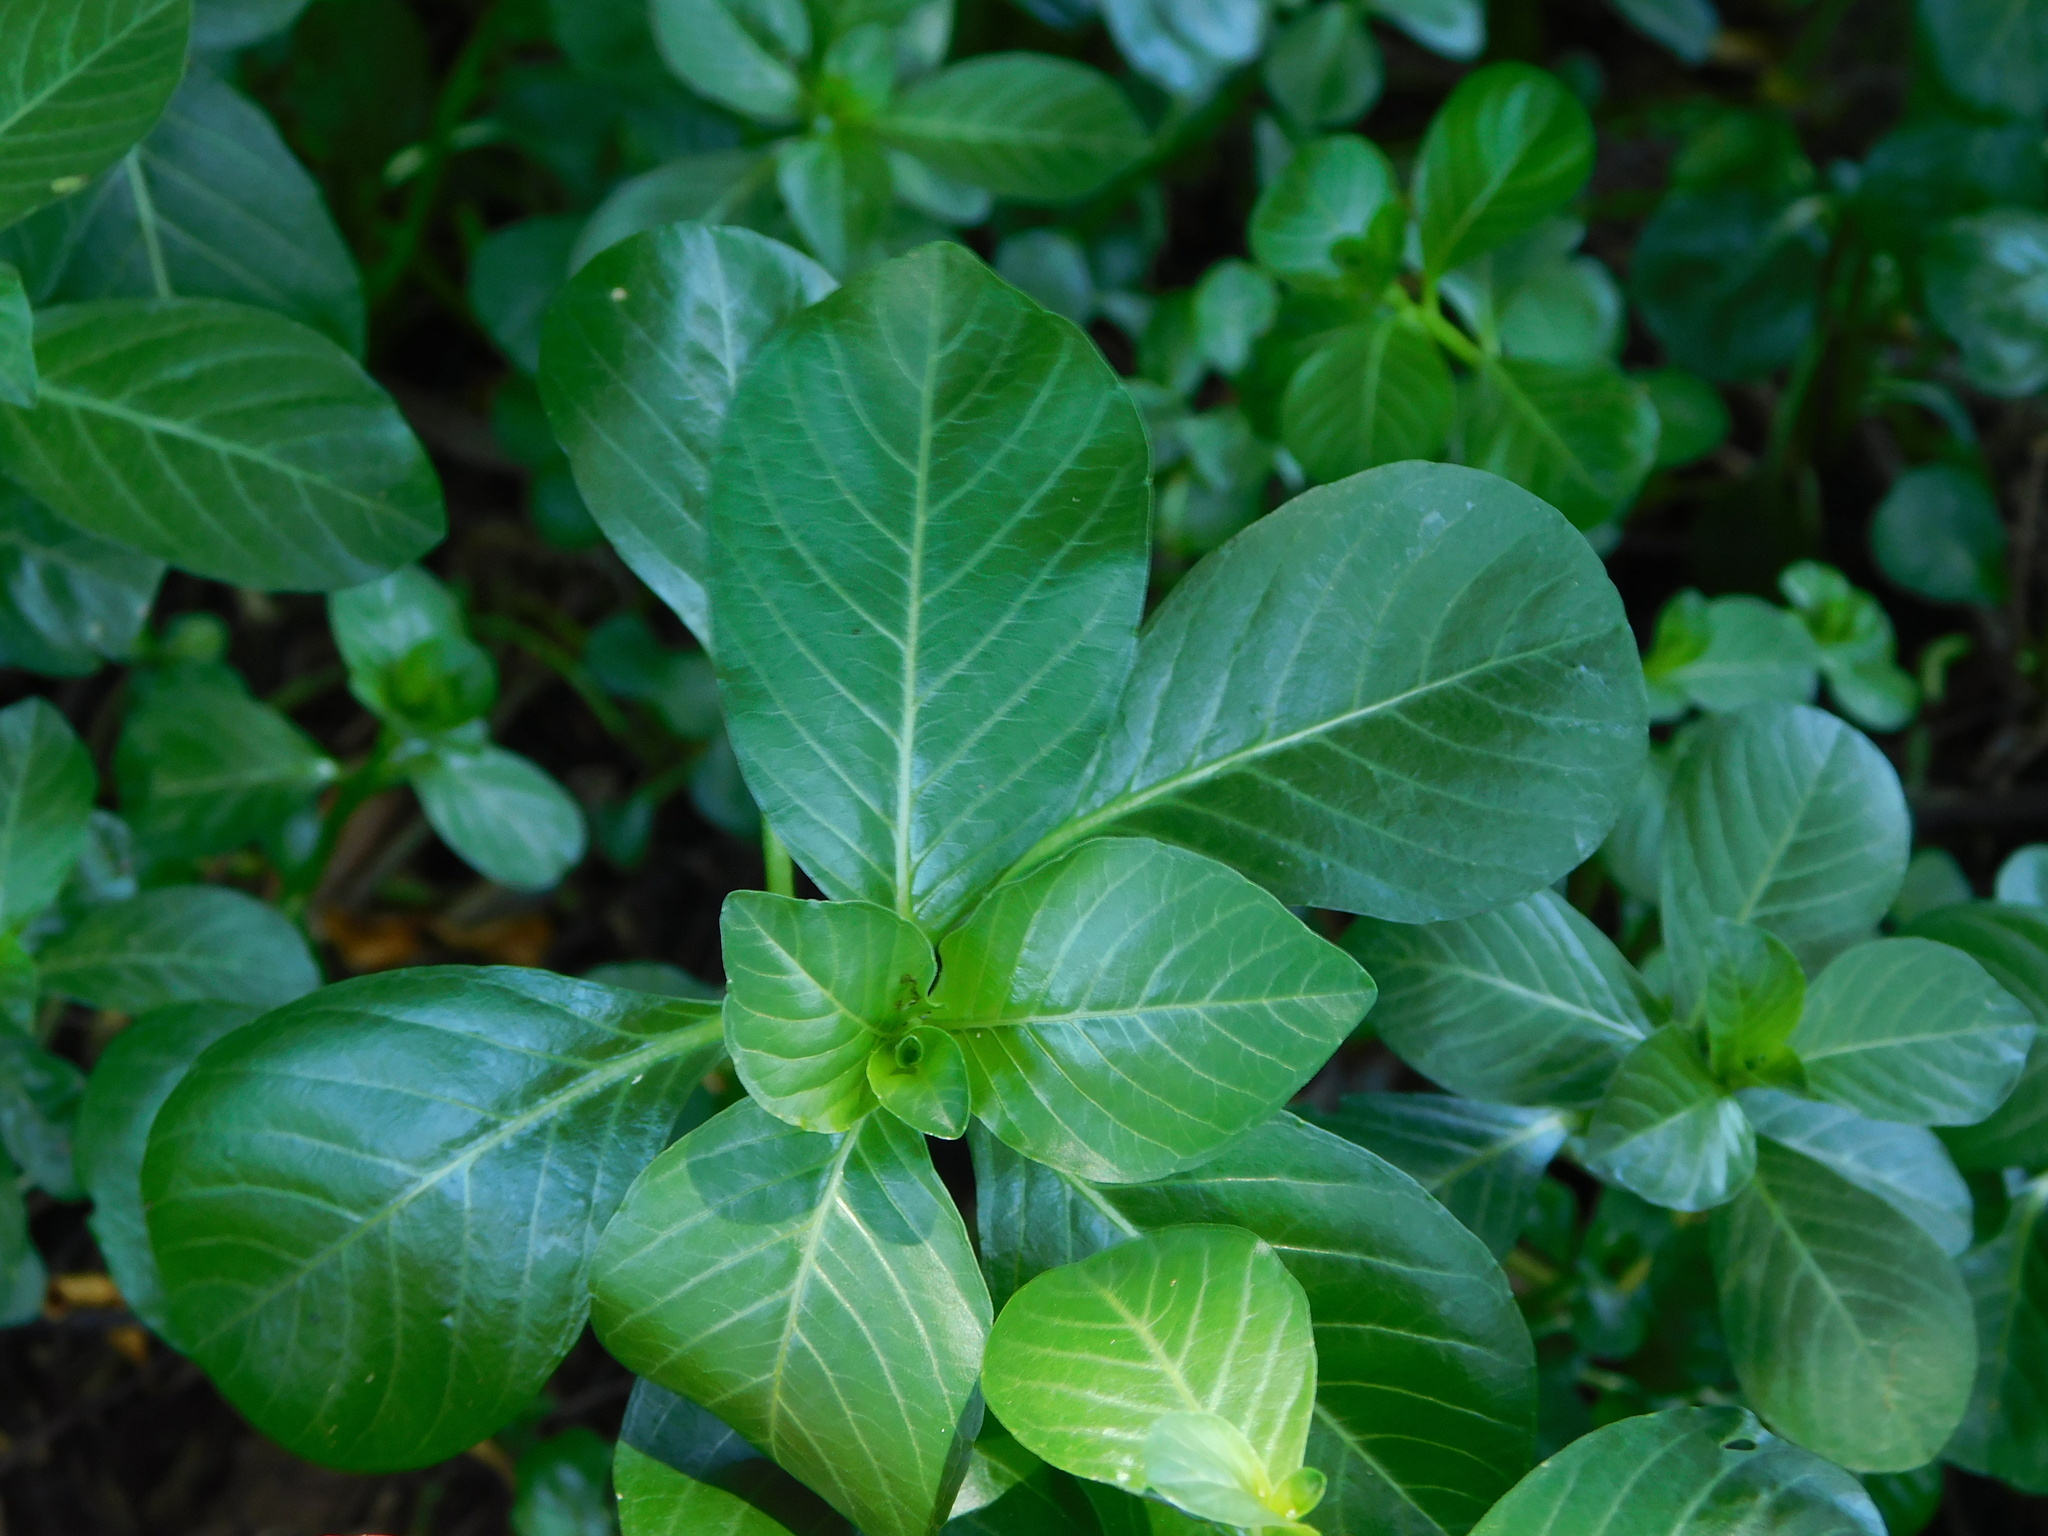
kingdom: Plantae
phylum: Tracheophyta
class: Magnoliopsida
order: Myrtales
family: Onagraceae
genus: Ludwigia
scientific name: Ludwigia peploides
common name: Floating primrose-willow
